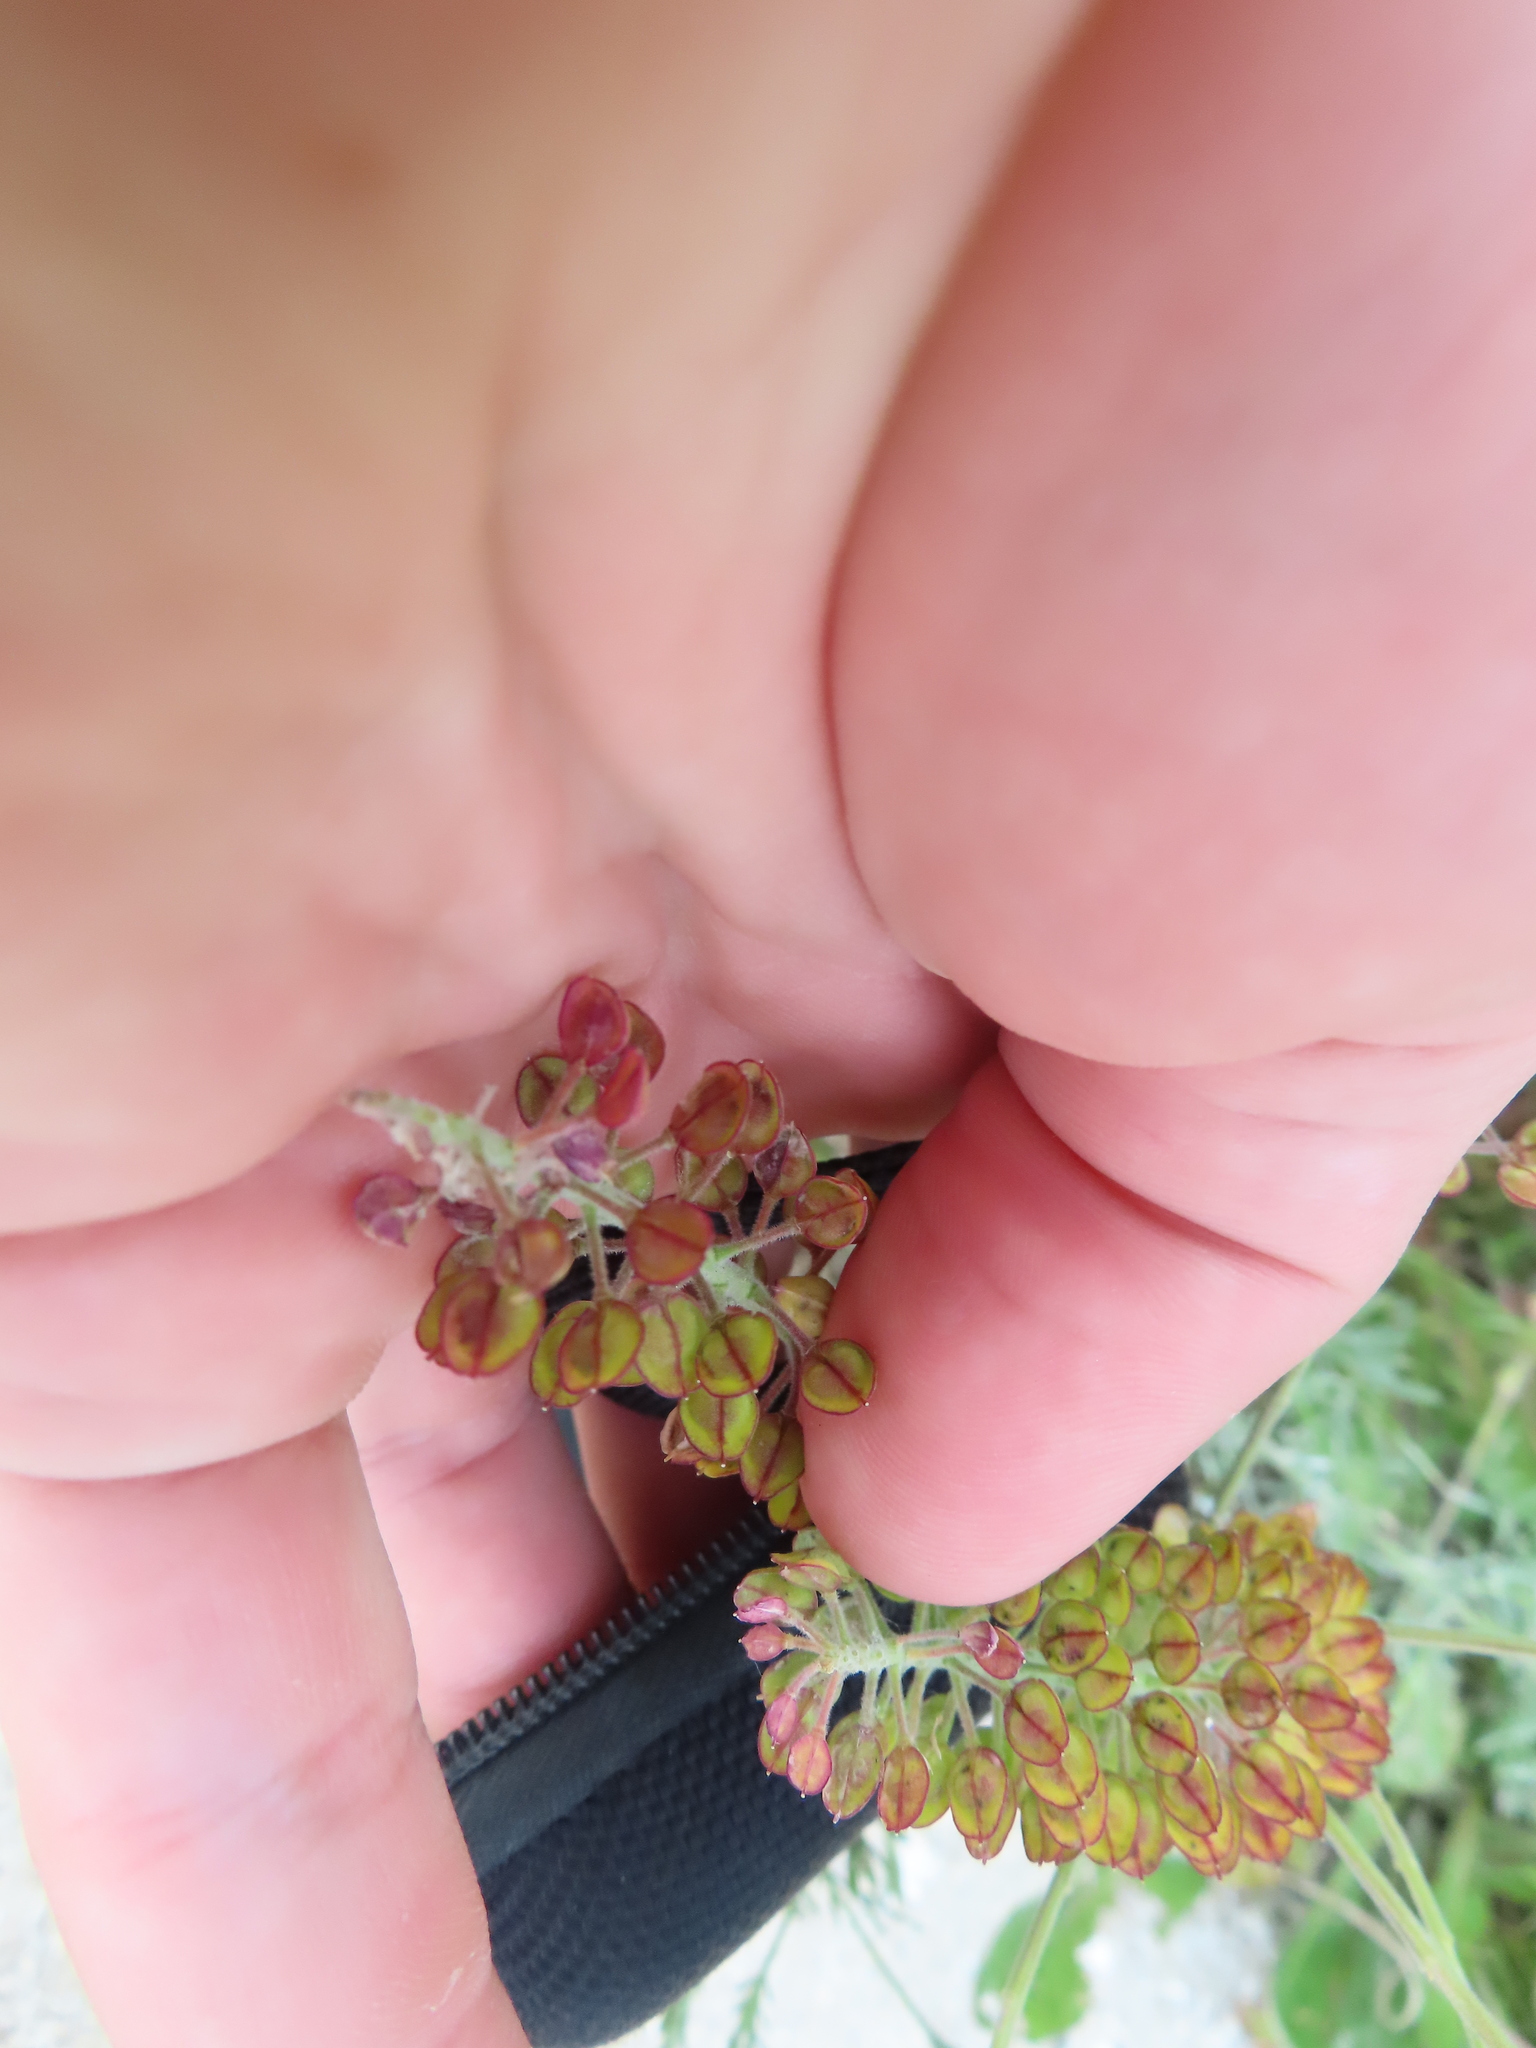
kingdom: Plantae
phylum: Tracheophyta
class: Magnoliopsida
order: Brassicales
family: Brassicaceae
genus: Lepidium
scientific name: Lepidium campestre
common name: Field pepperwort
